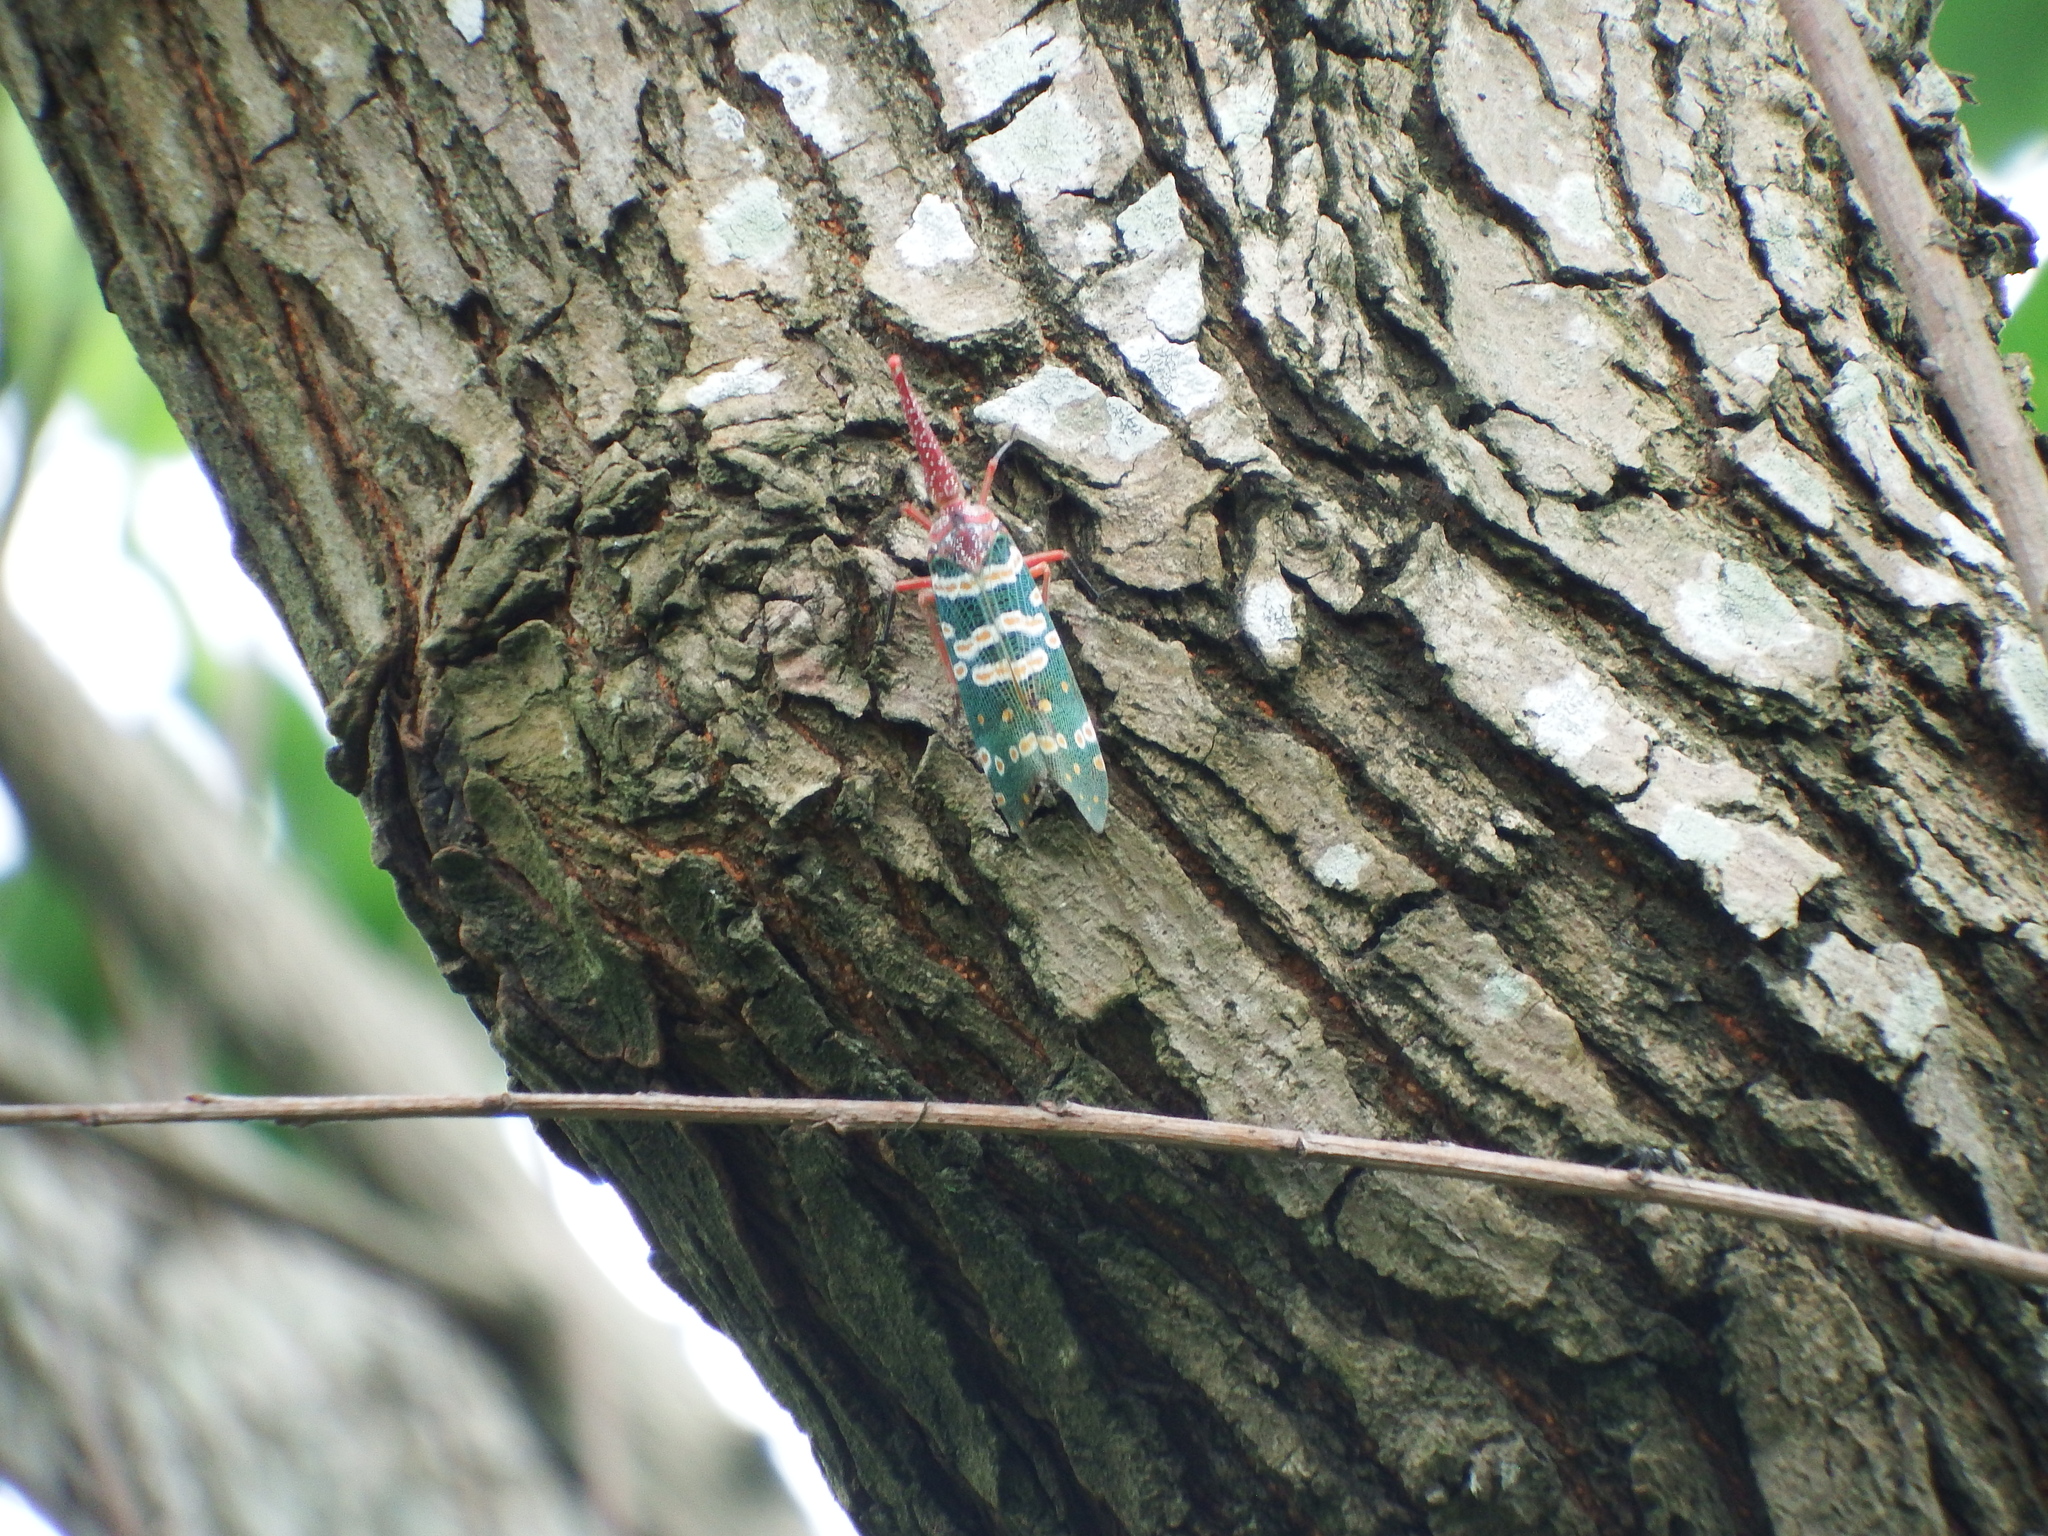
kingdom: Animalia
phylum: Arthropoda
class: Insecta
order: Hemiptera
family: Fulgoridae
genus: Pyrops
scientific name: Pyrops candelaria
